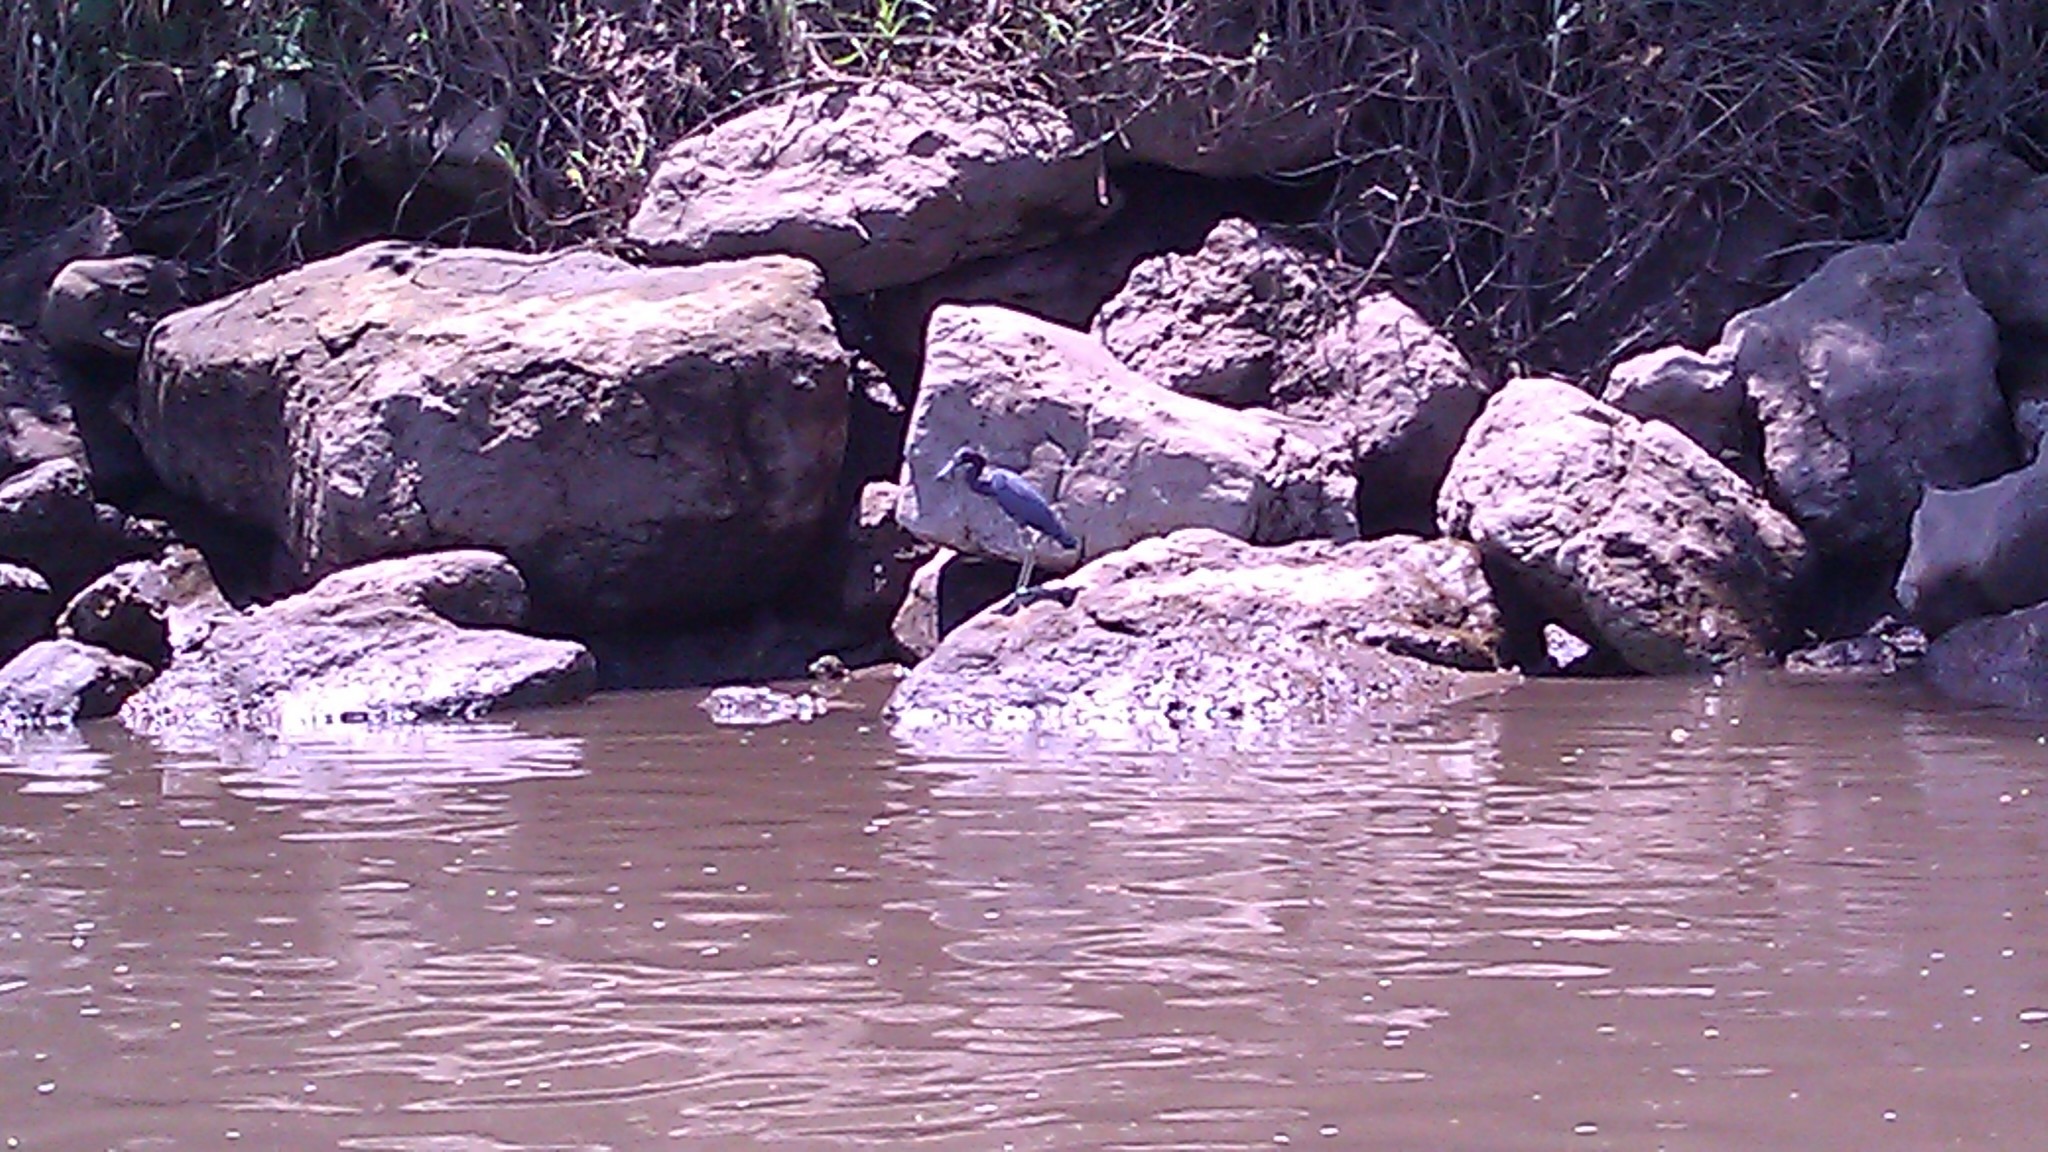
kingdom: Animalia
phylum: Chordata
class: Aves
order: Pelecaniformes
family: Ardeidae
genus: Egretta
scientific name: Egretta caerulea
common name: Little blue heron
